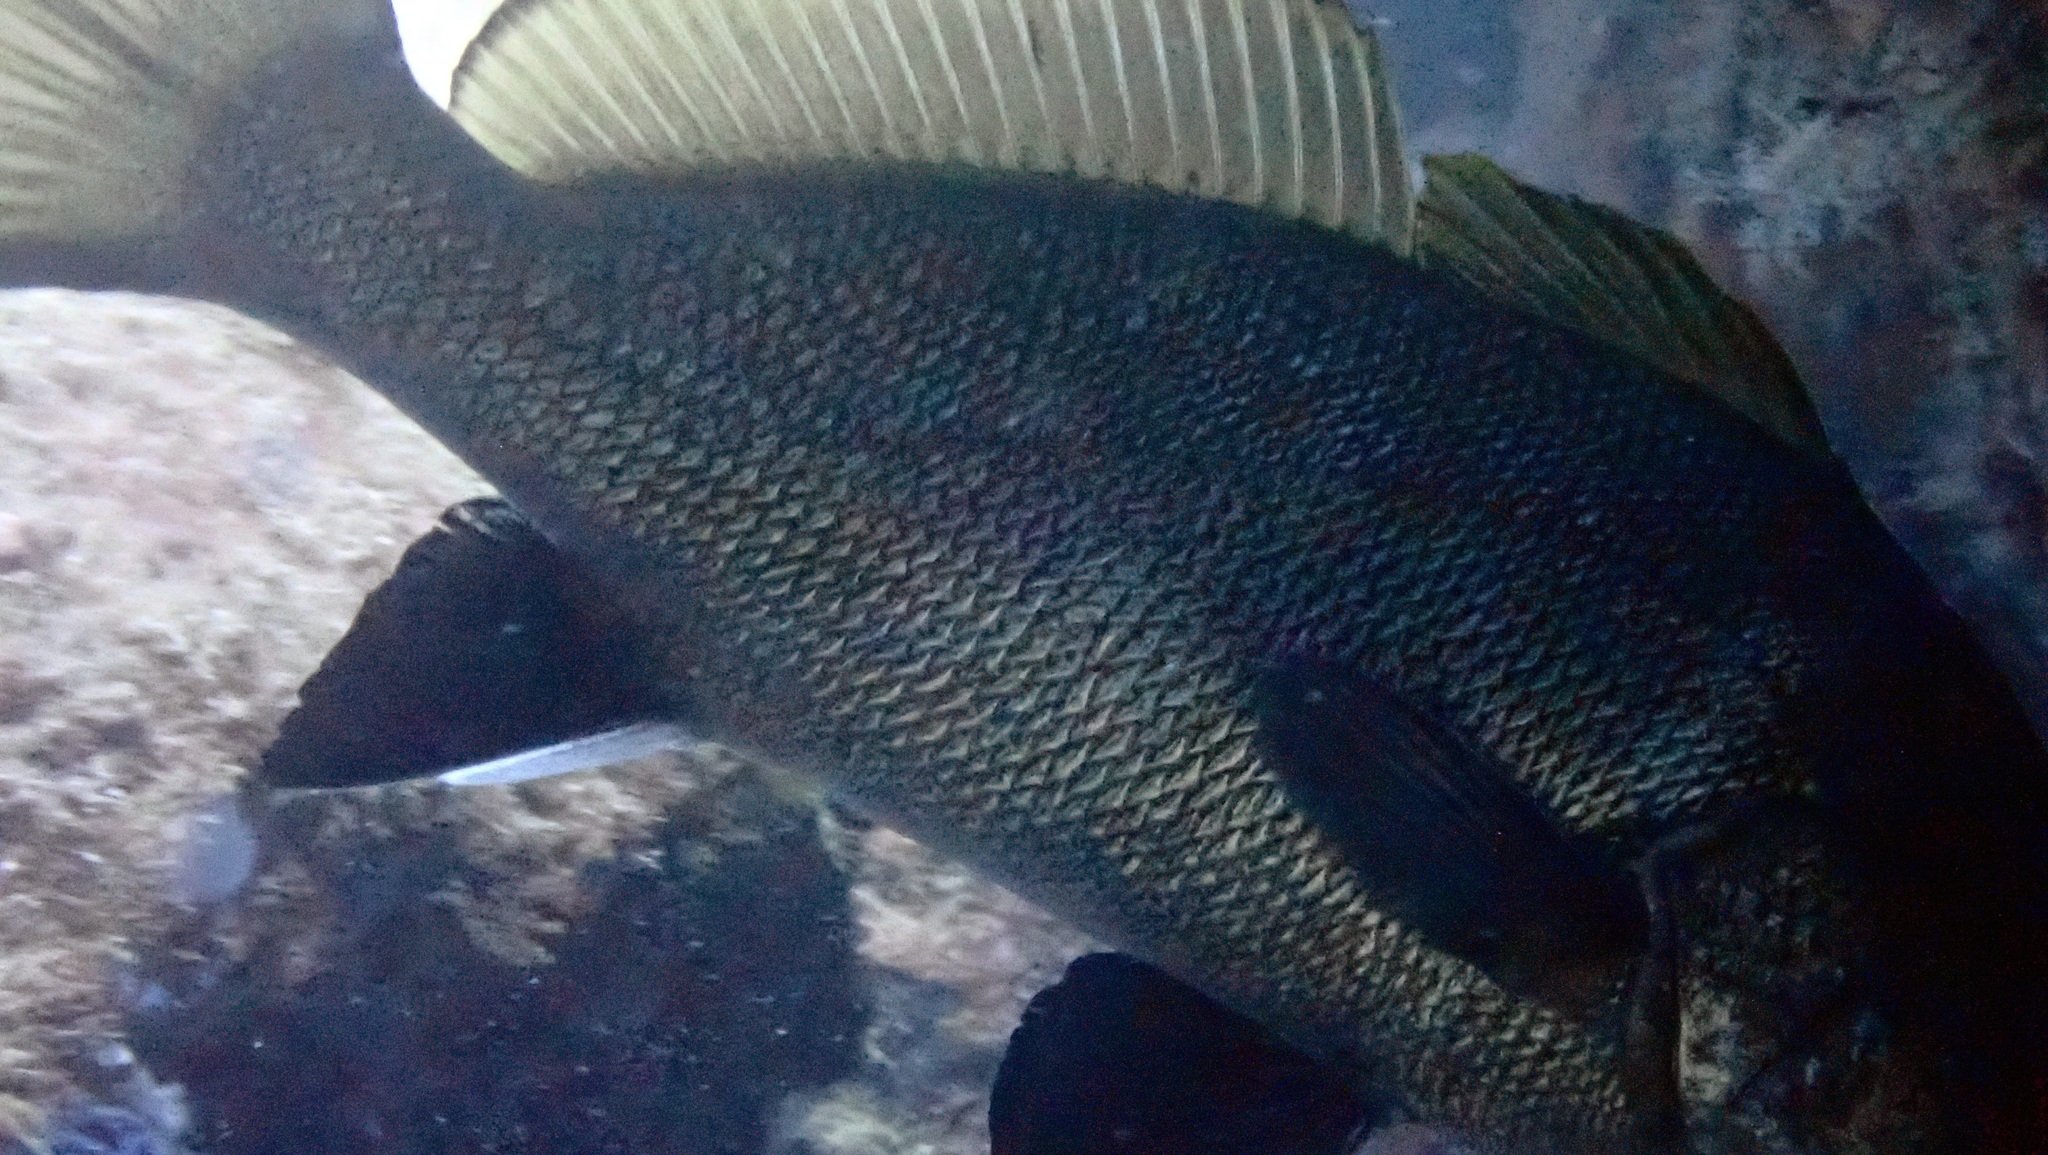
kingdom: Animalia
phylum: Chordata
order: Perciformes
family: Sciaenidae
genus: Sciaena
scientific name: Sciaena umbra
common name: Brown meagre
